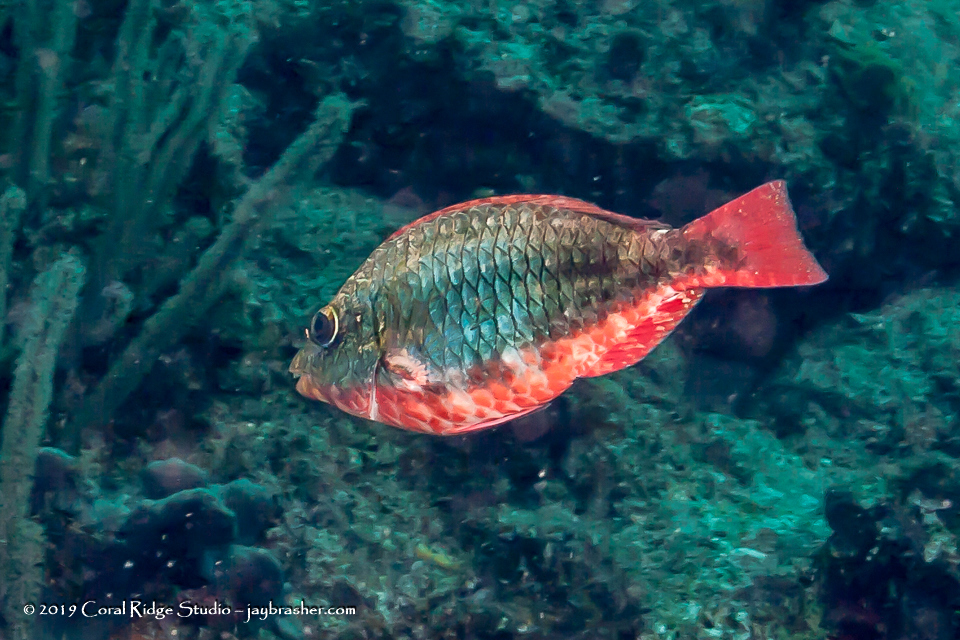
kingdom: Animalia
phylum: Chordata
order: Perciformes
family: Scaridae
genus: Sparisoma
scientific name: Sparisoma aurofrenatum
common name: Redband parrotfish
